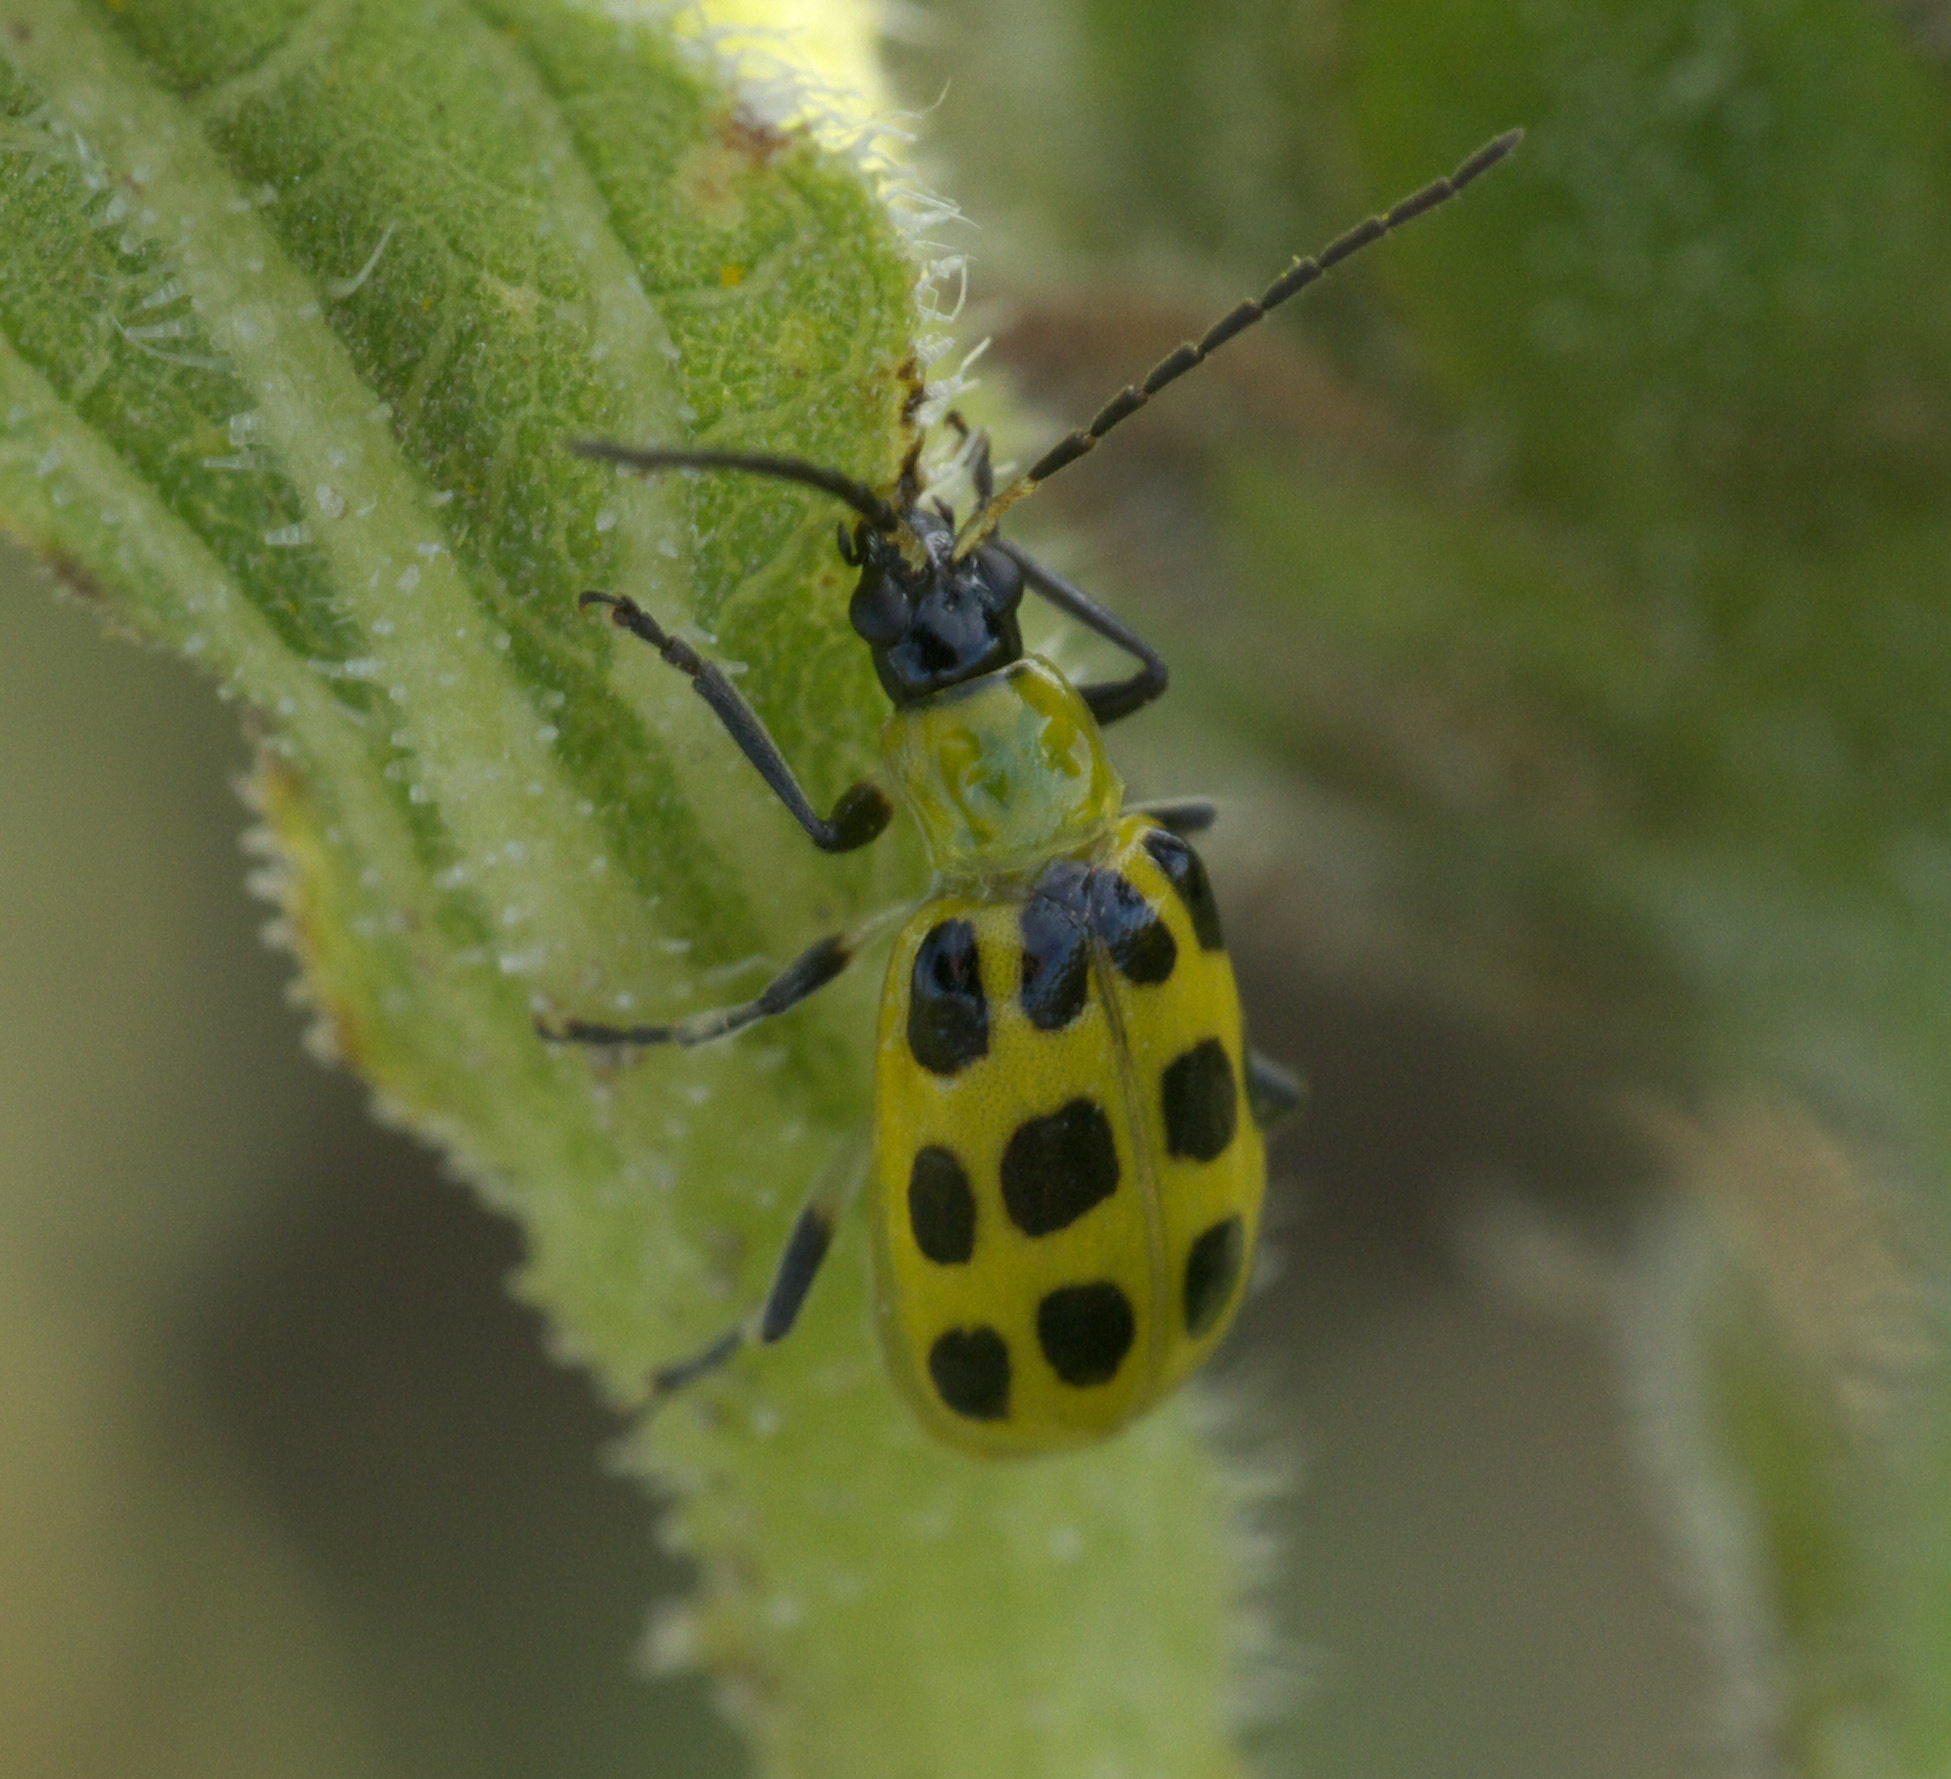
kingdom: Animalia
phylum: Arthropoda
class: Insecta
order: Coleoptera
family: Chrysomelidae
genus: Diabrotica
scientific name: Diabrotica undecimpunctata
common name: Spotted cucumber beetle
